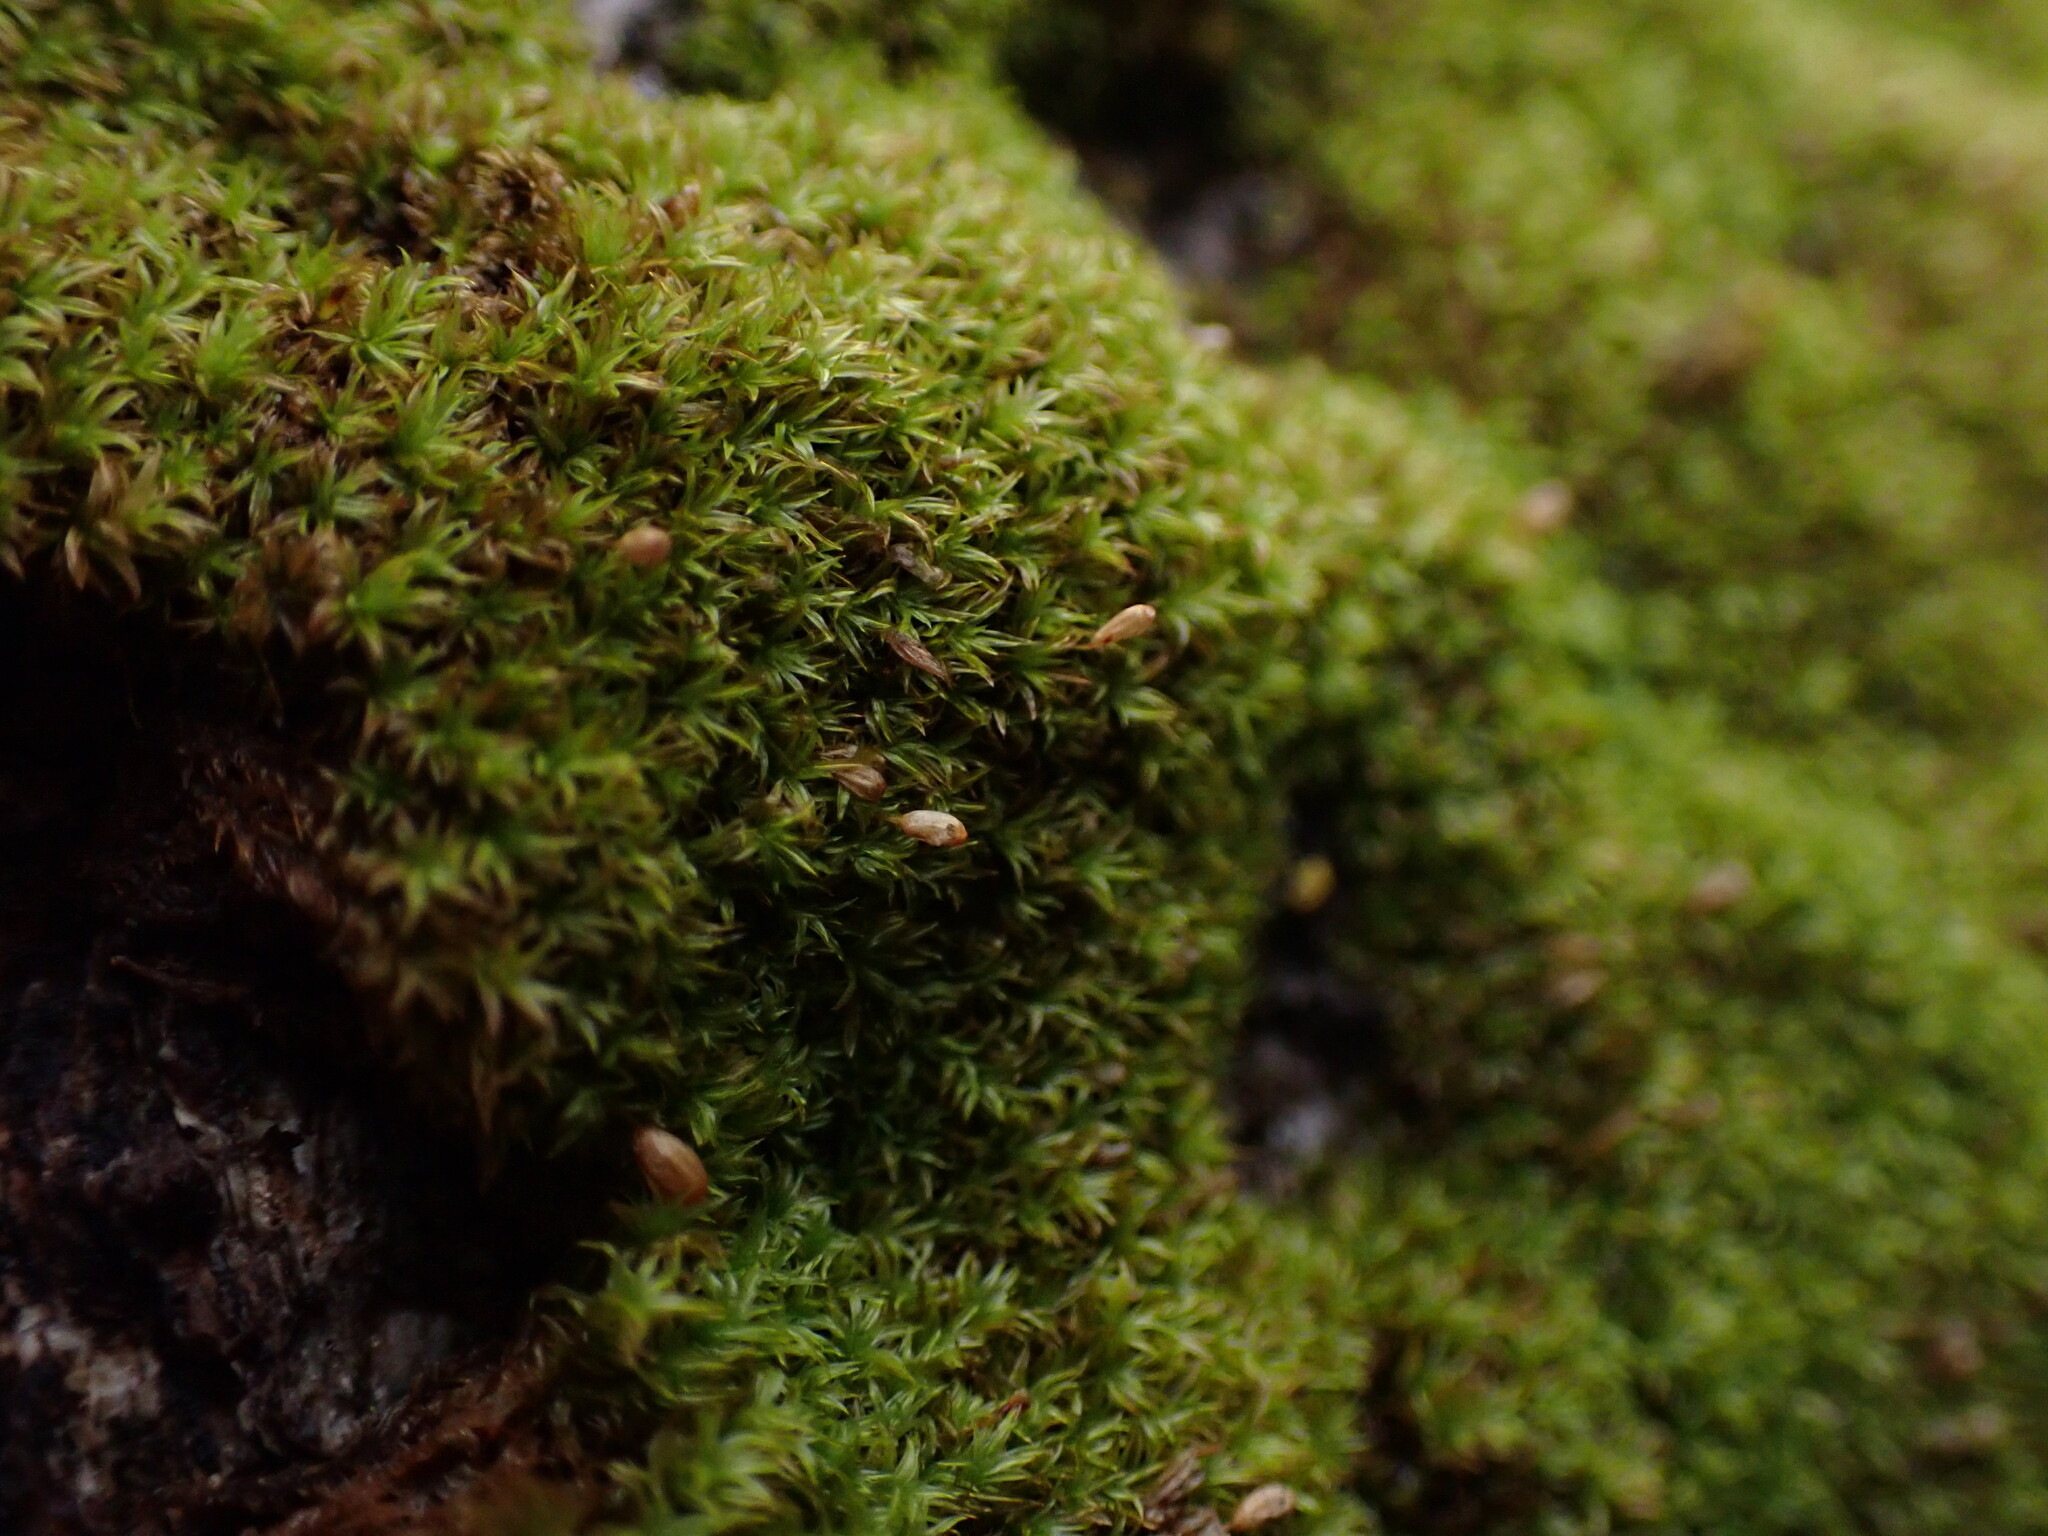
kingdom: Plantae
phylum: Bryophyta
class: Bryopsida
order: Orthotrichales
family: Orthotrichaceae
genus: Zygodon
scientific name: Zygodon rupestris
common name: Park yoke moss
